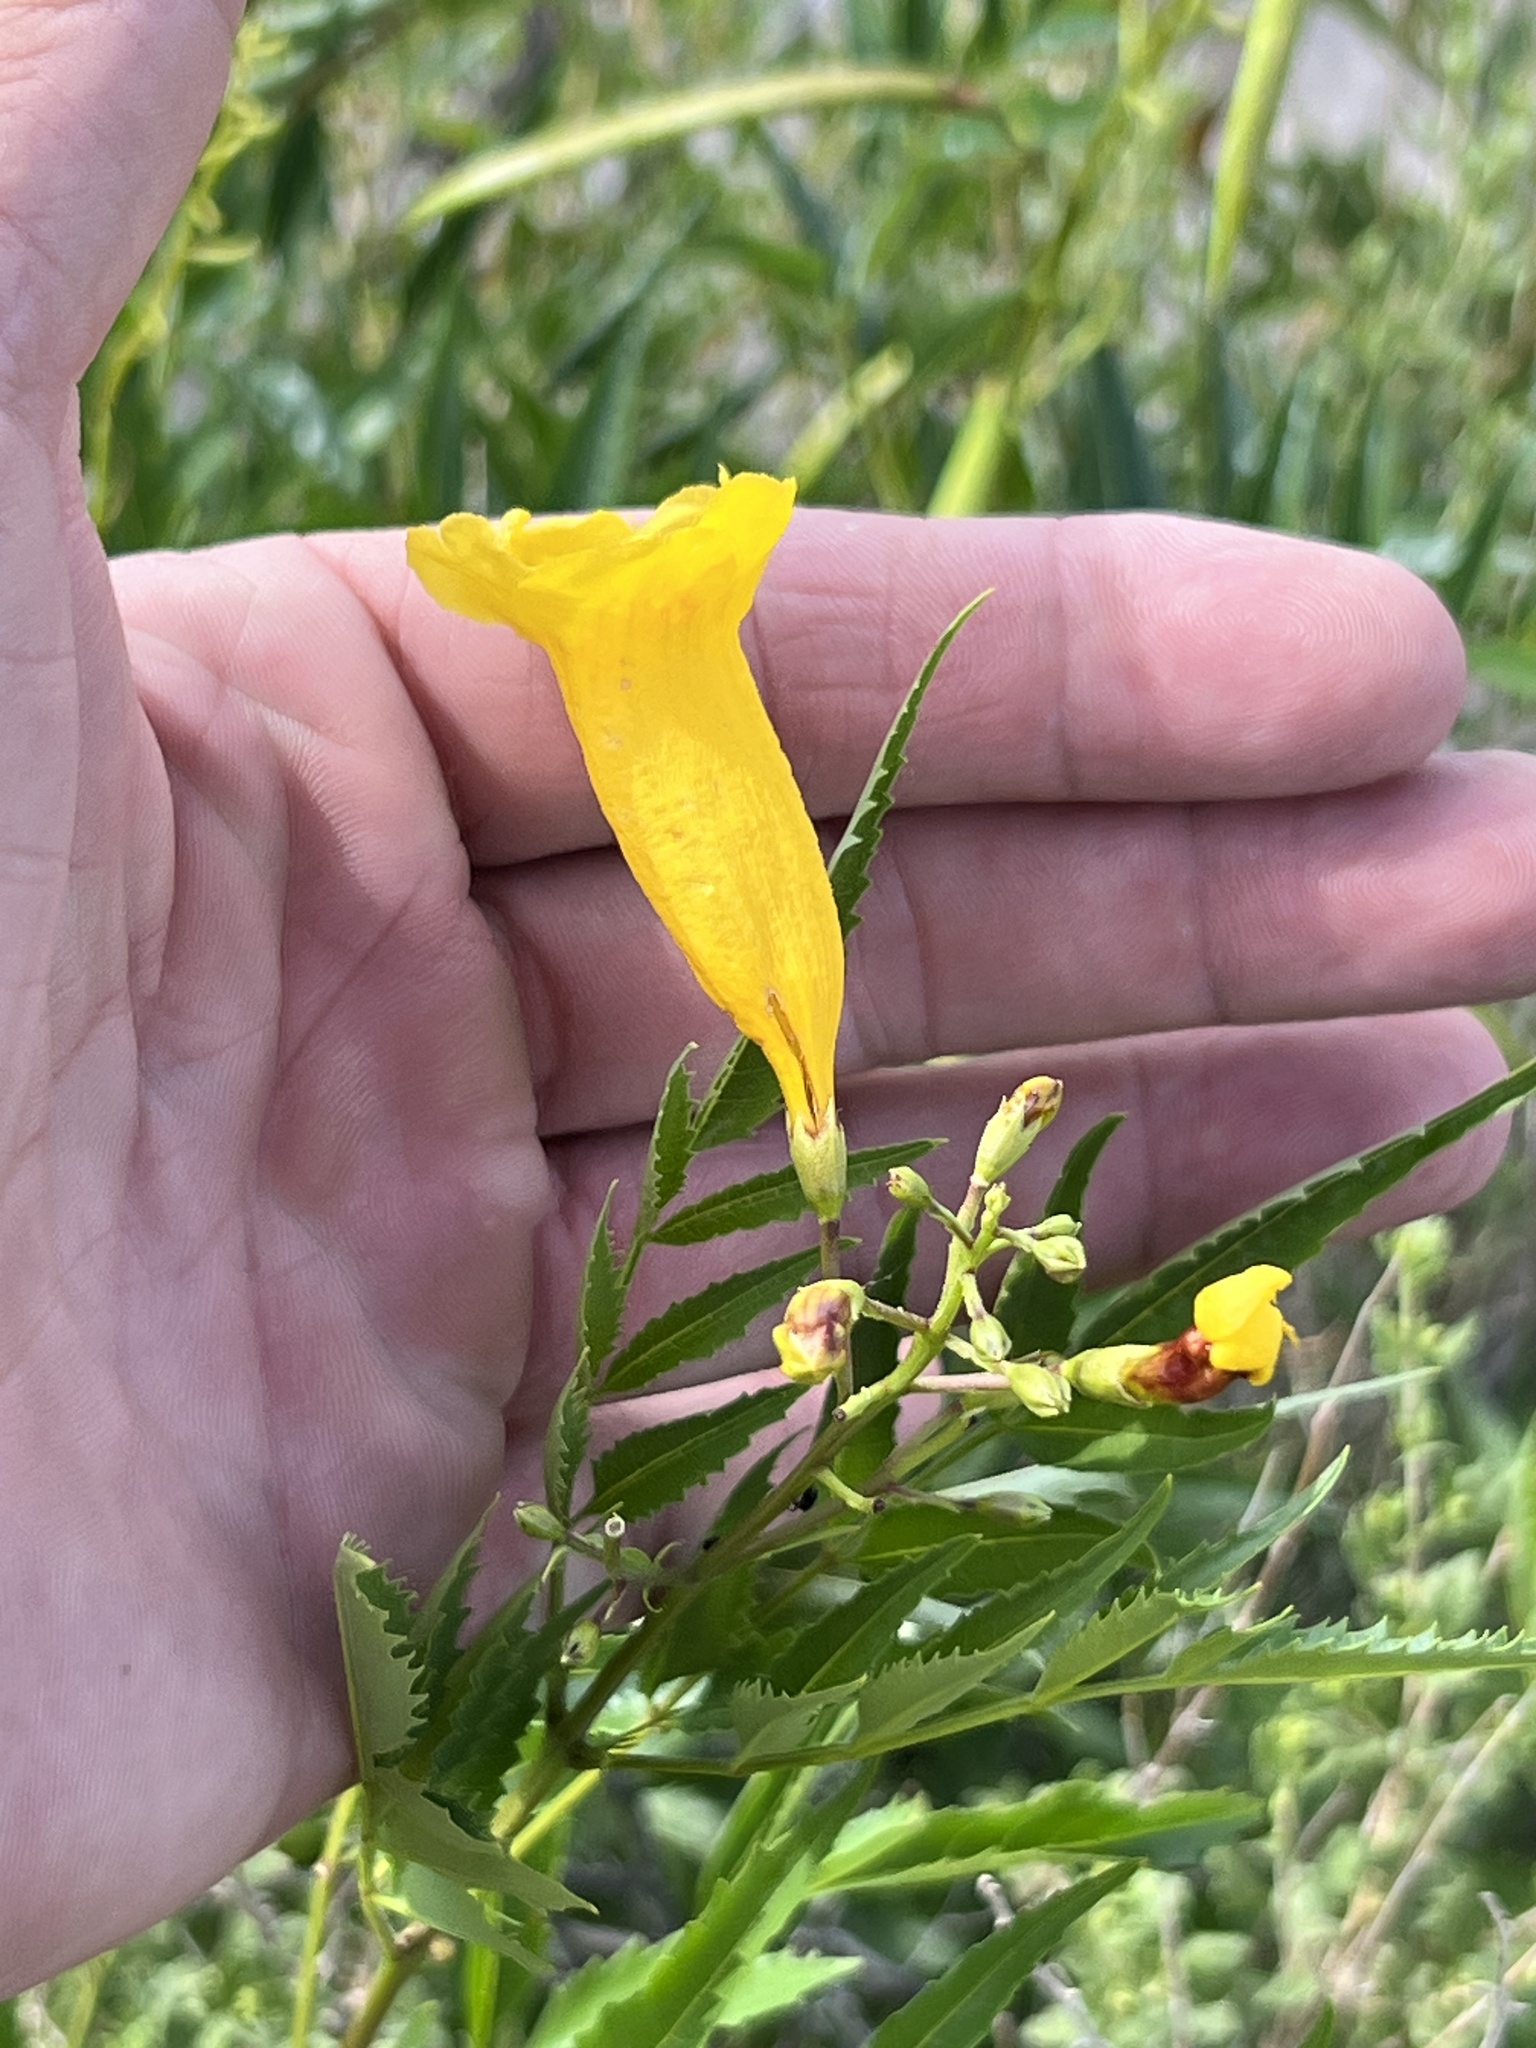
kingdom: Plantae
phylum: Tracheophyta
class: Magnoliopsida
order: Lamiales
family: Bignoniaceae
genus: Tecoma
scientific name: Tecoma stans
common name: Yellow trumpetbush
